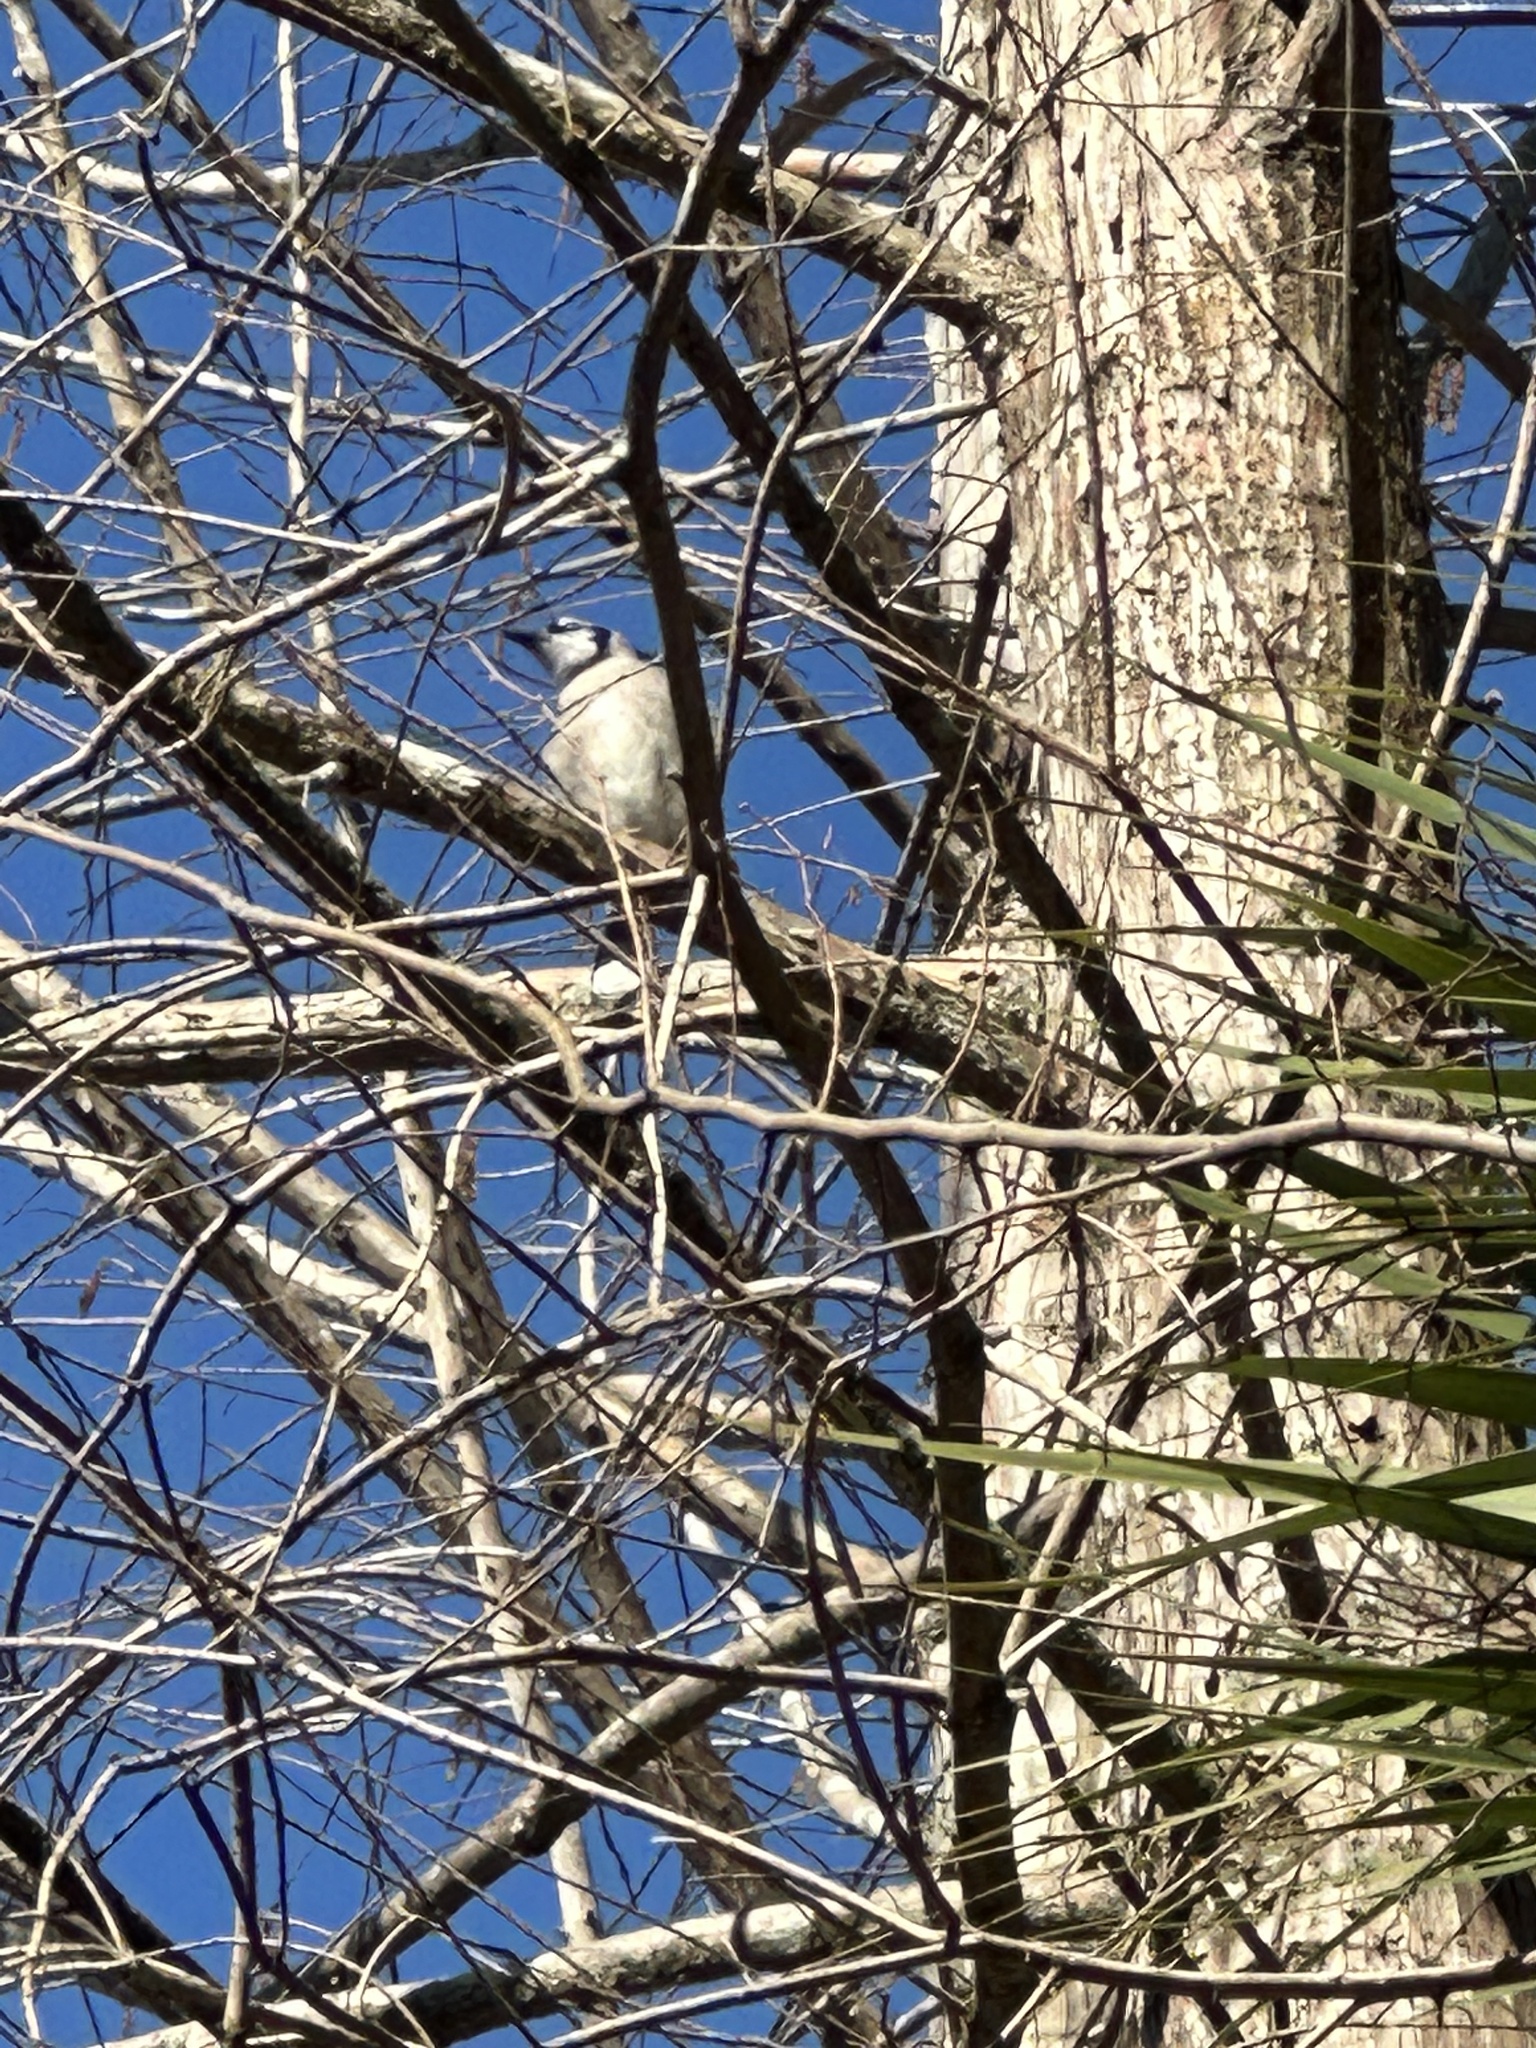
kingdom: Animalia
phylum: Chordata
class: Aves
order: Passeriformes
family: Corvidae
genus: Cyanocitta
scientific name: Cyanocitta cristata
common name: Blue jay
